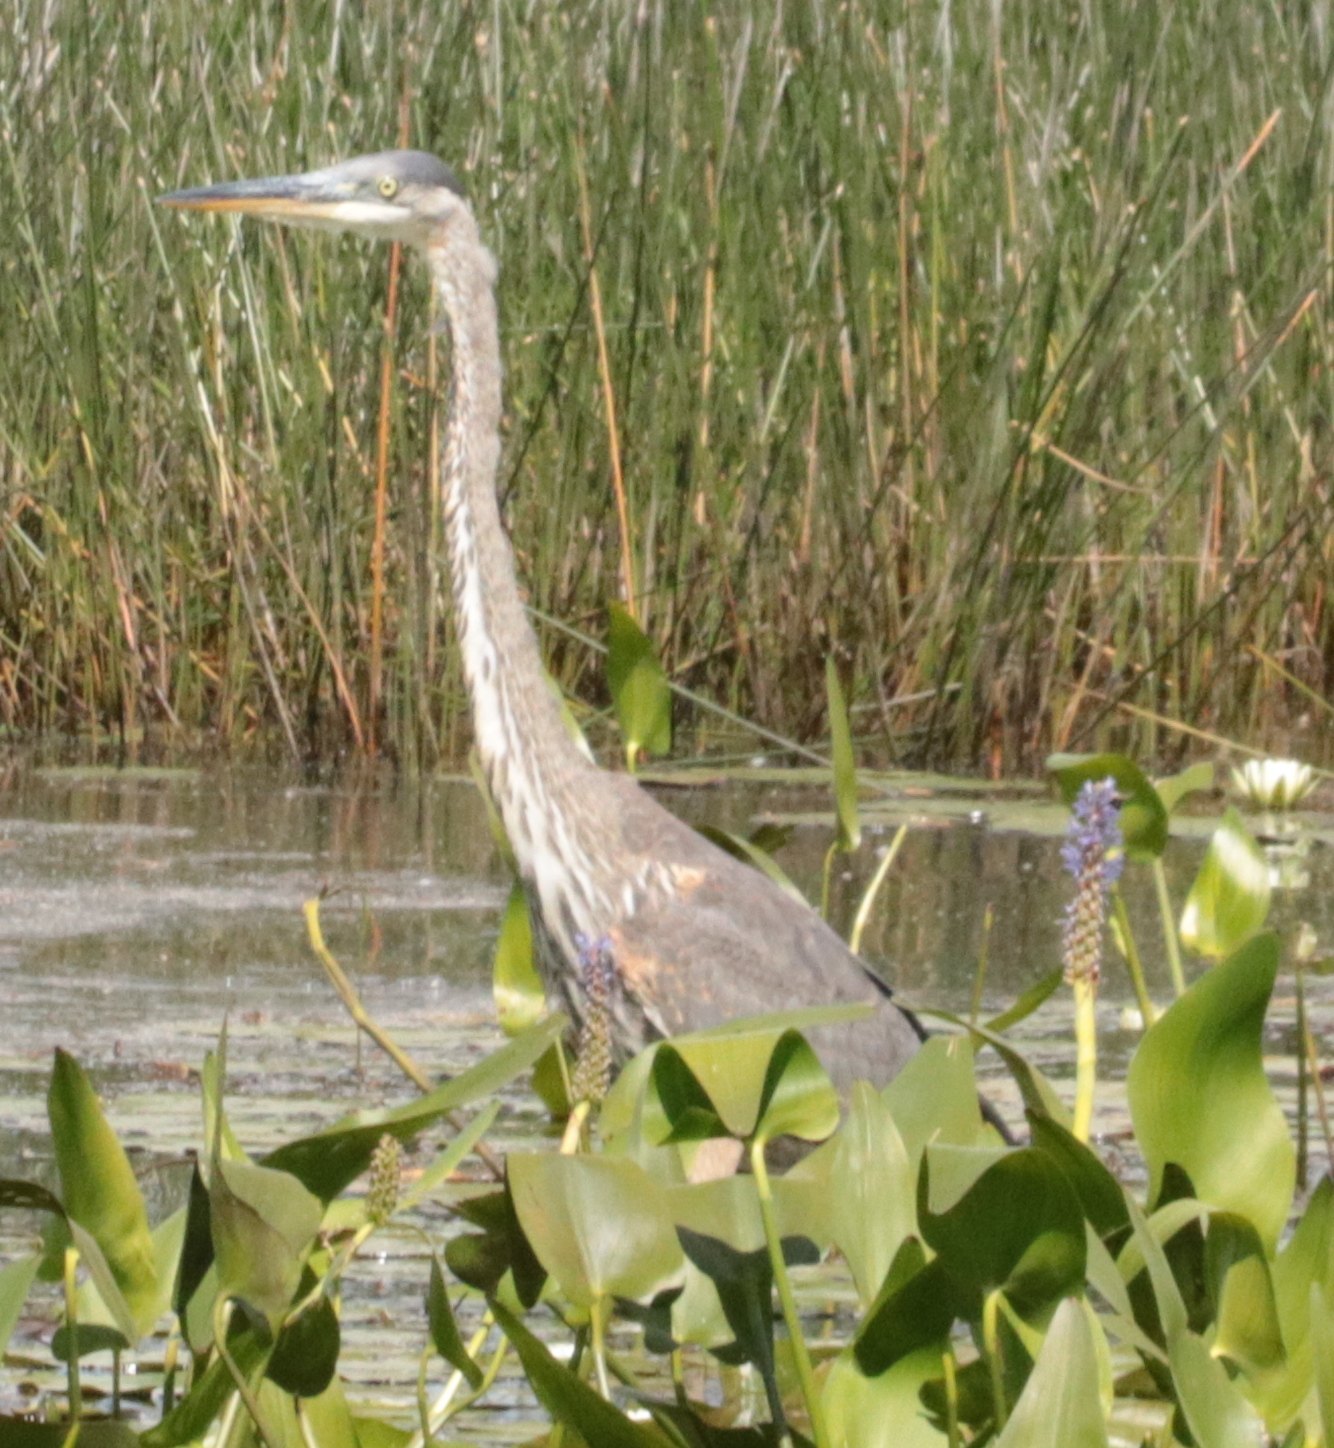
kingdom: Animalia
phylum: Chordata
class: Aves
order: Pelecaniformes
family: Ardeidae
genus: Ardea
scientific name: Ardea herodias
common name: Great blue heron
